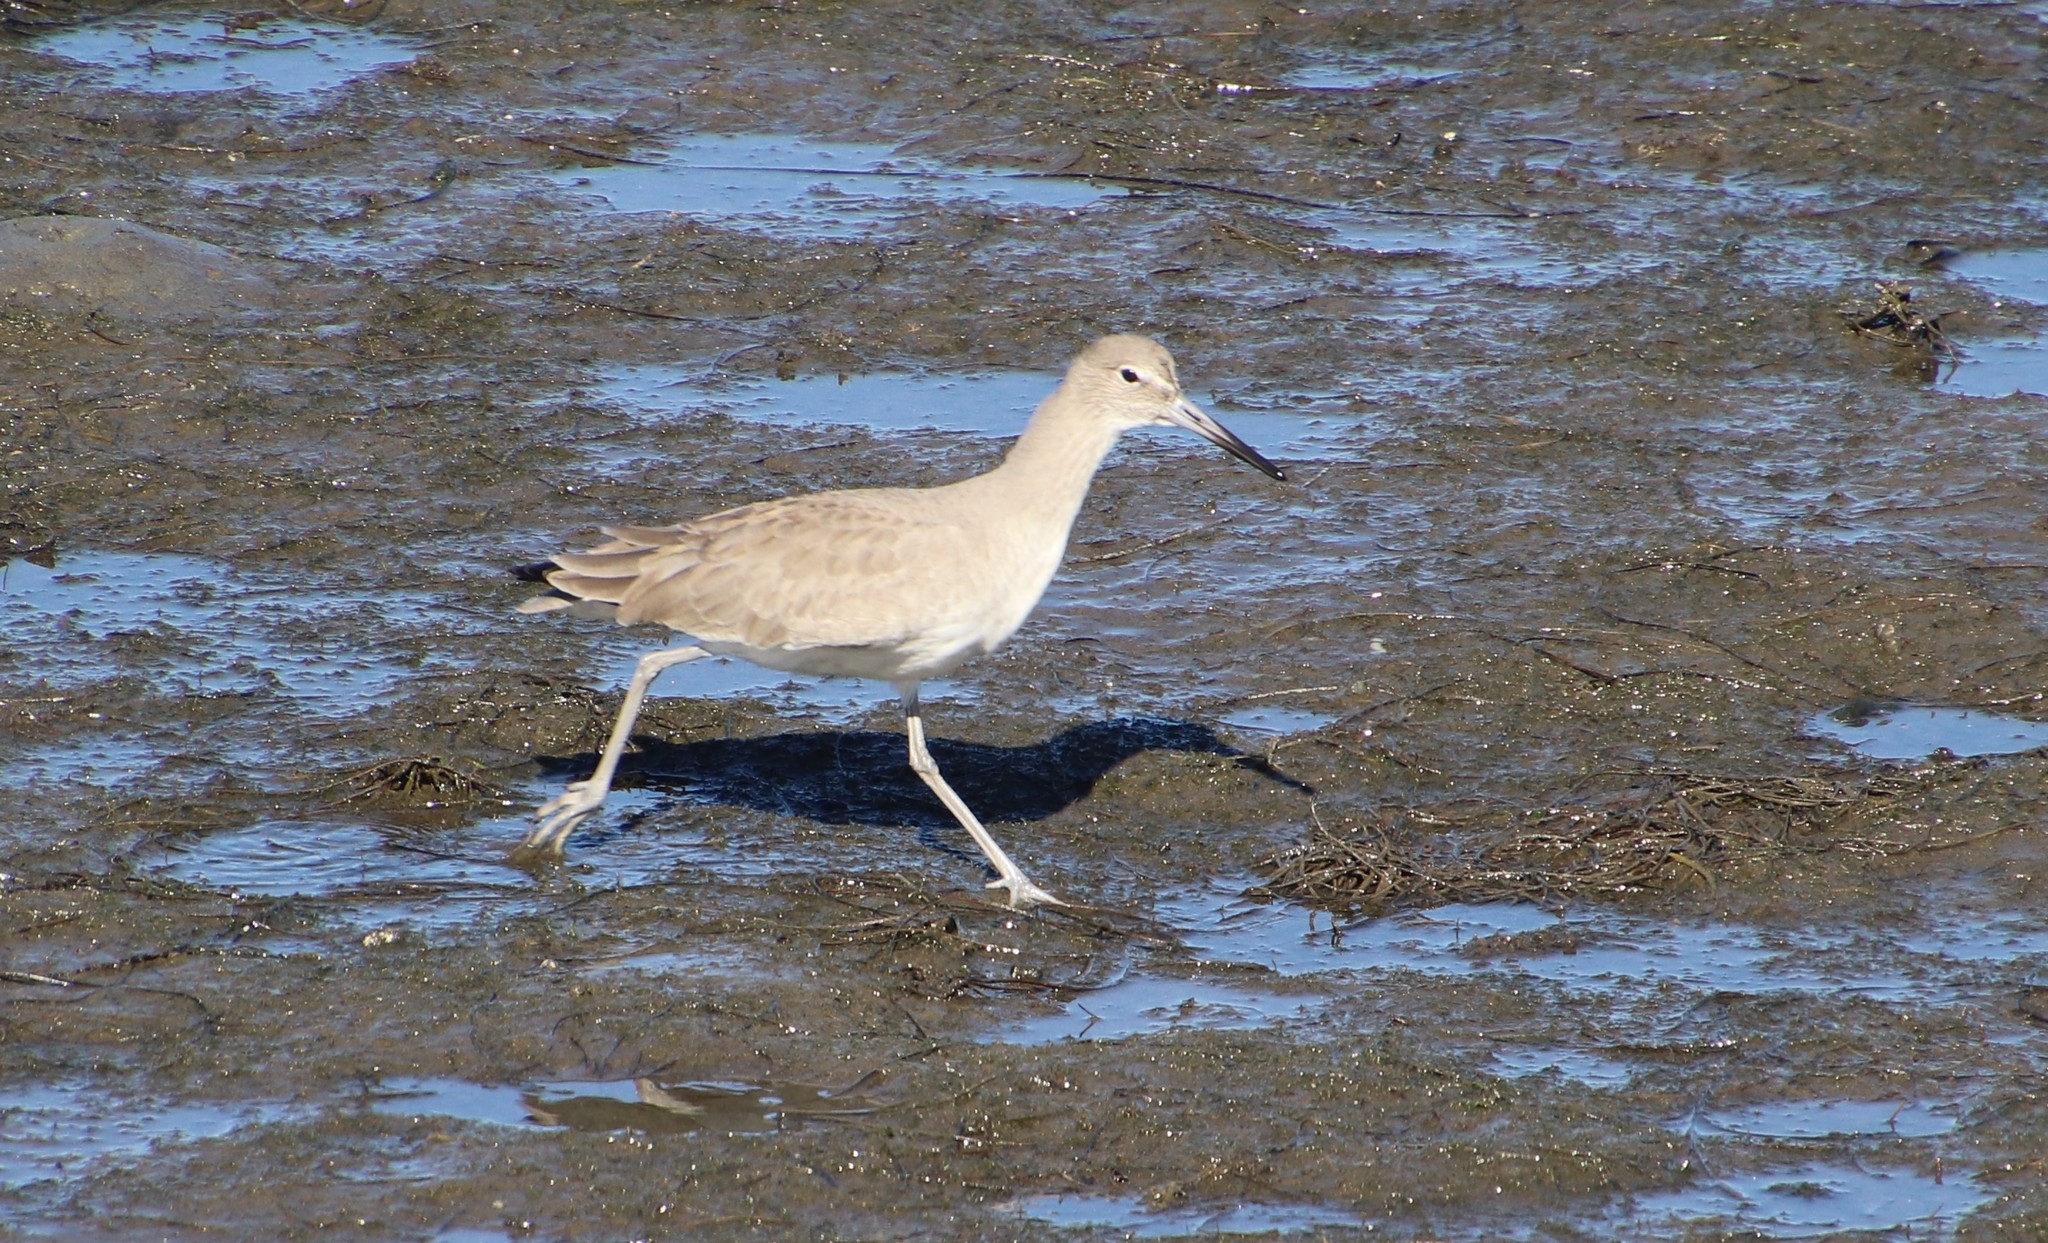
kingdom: Animalia
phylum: Chordata
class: Aves
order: Charadriiformes
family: Scolopacidae
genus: Tringa
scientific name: Tringa semipalmata
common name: Willet
